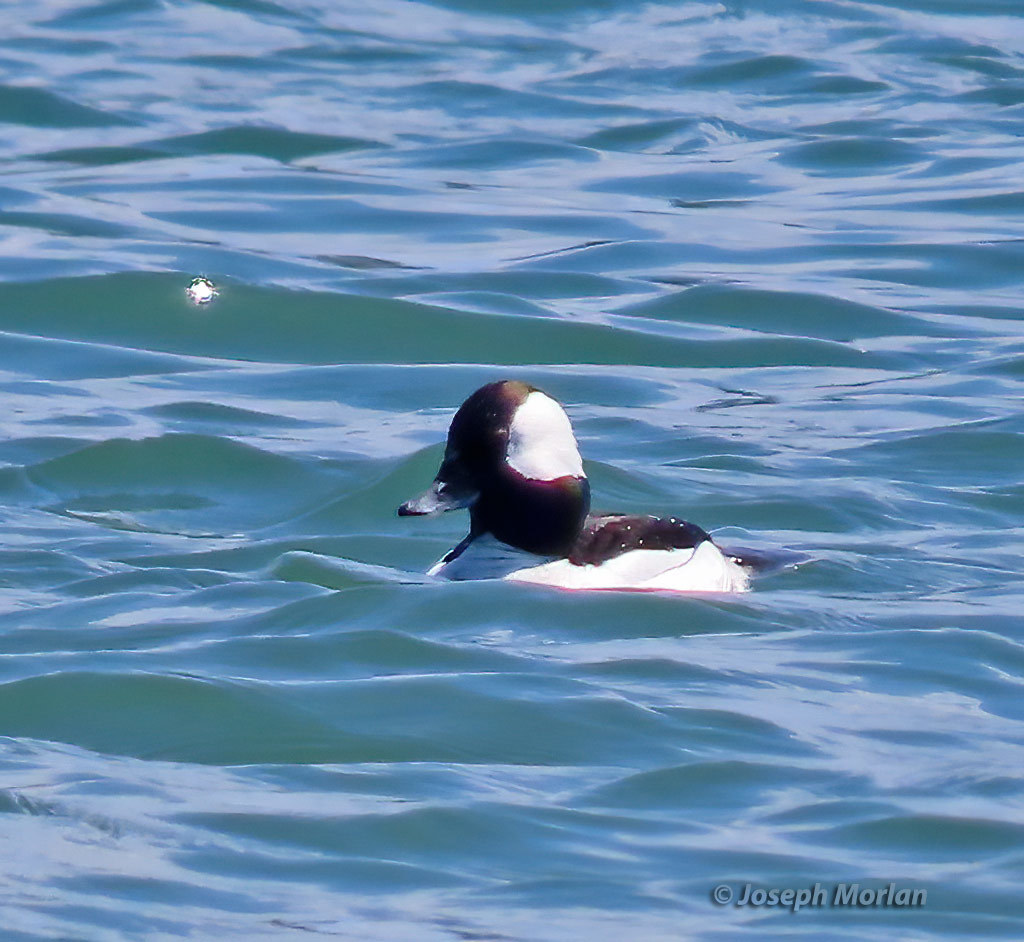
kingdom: Animalia
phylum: Chordata
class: Aves
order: Anseriformes
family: Anatidae
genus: Bucephala
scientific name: Bucephala albeola
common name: Bufflehead
